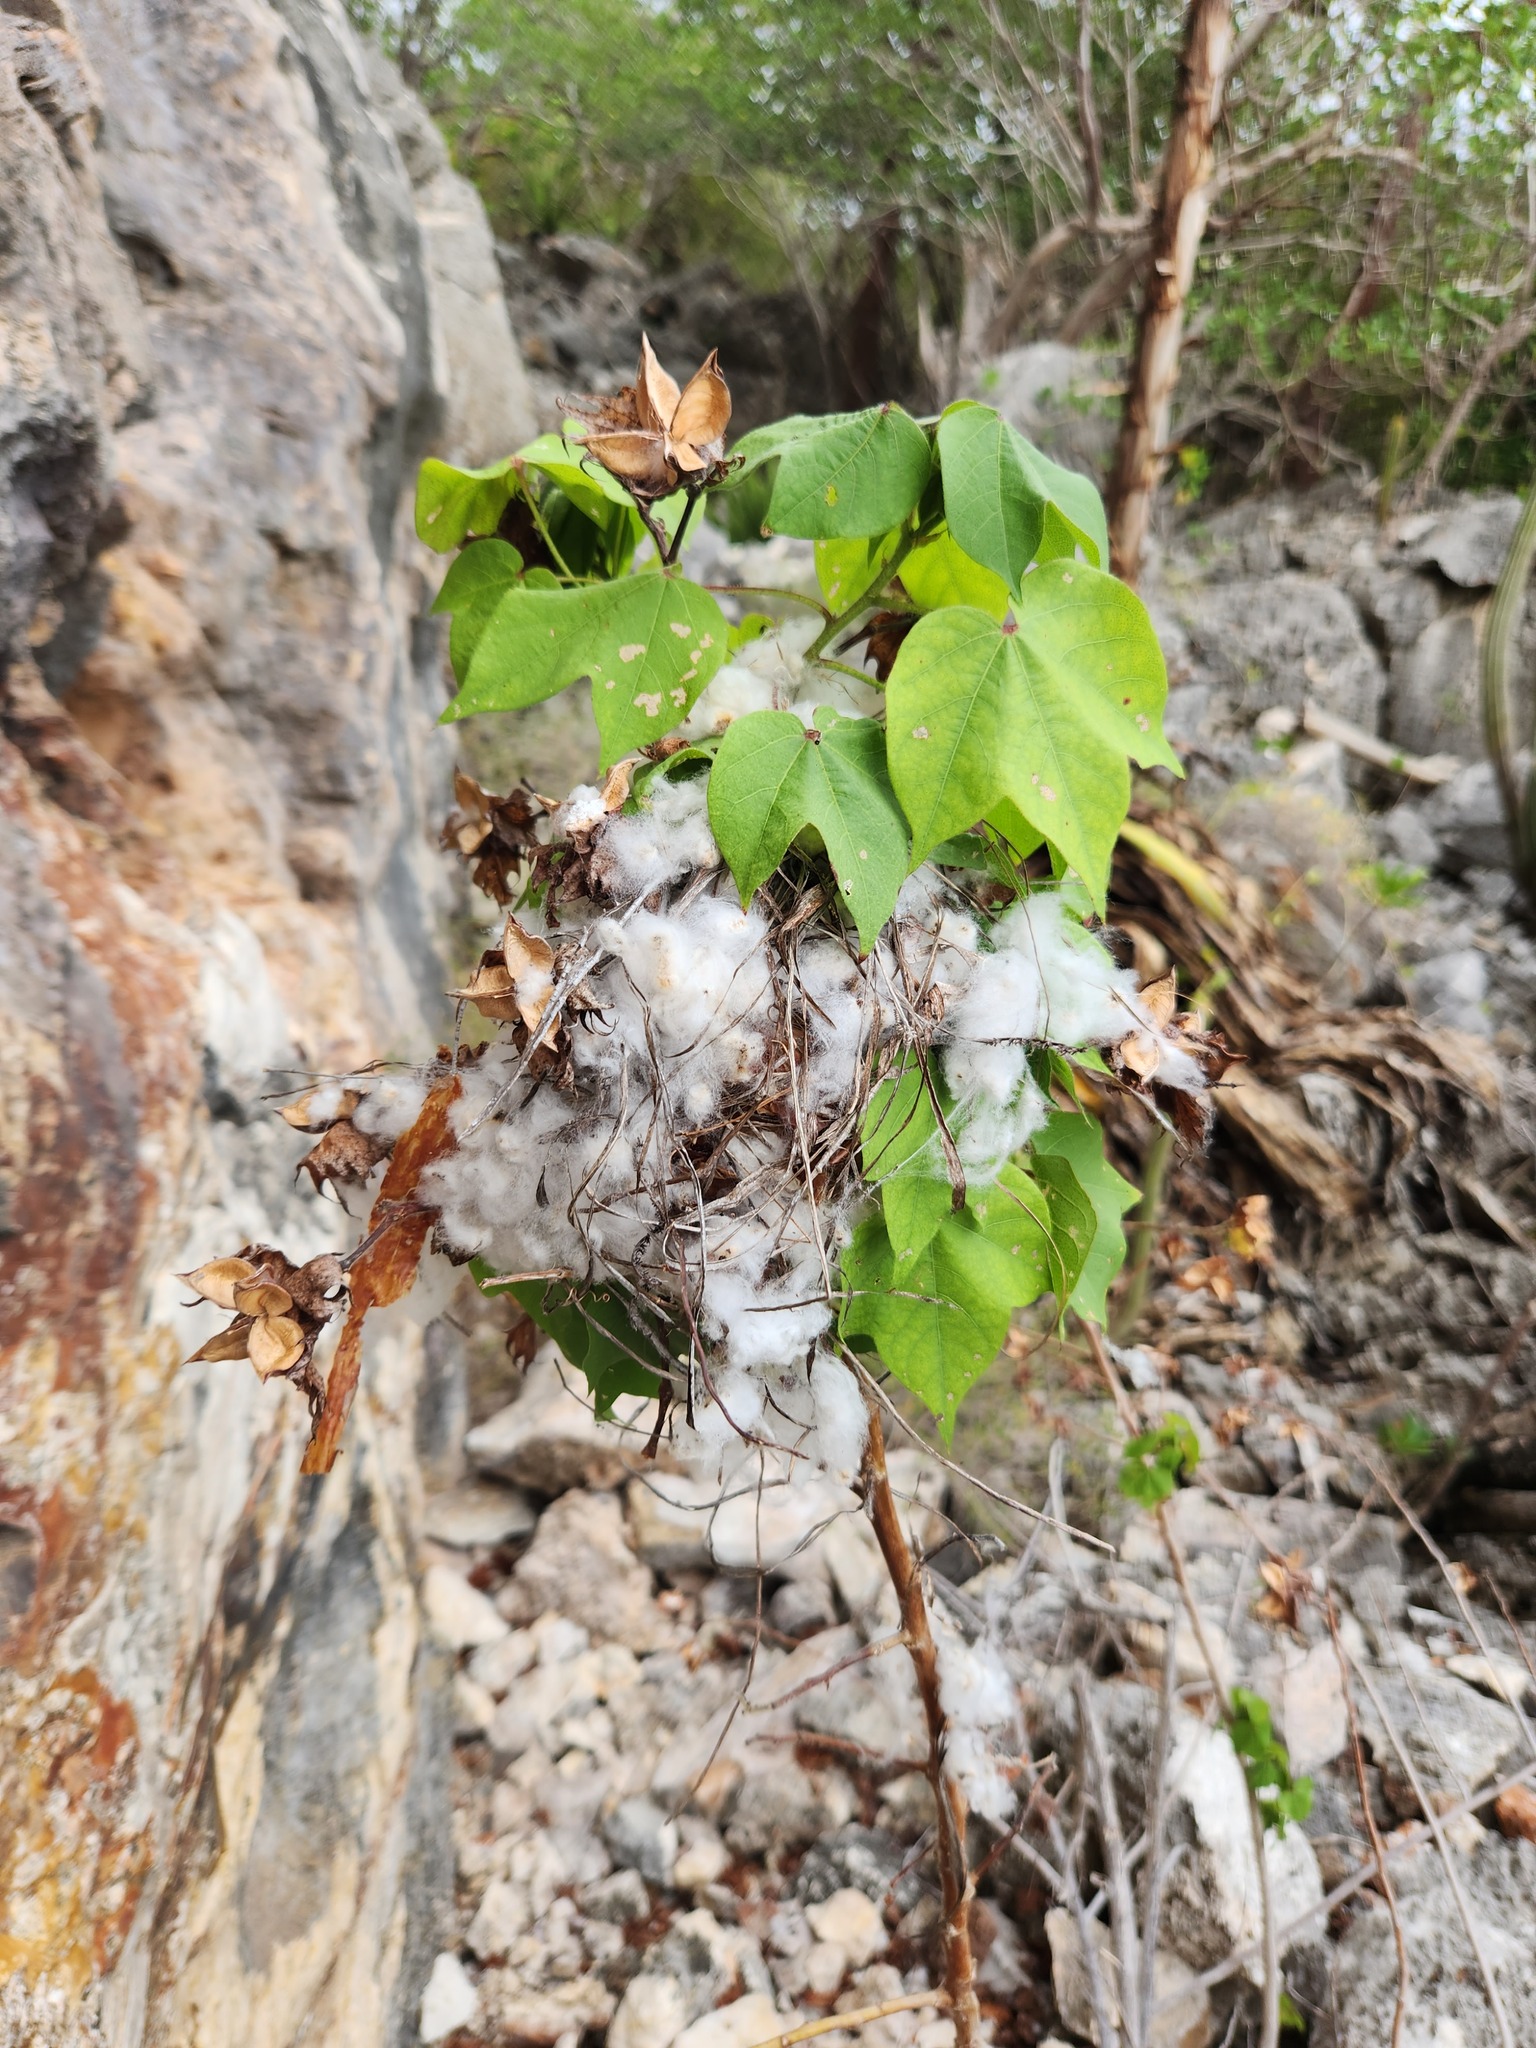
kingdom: Plantae
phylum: Tracheophyta
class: Magnoliopsida
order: Malvales
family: Malvaceae
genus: Gossypium
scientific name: Gossypium hirsutum
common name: Cotton
